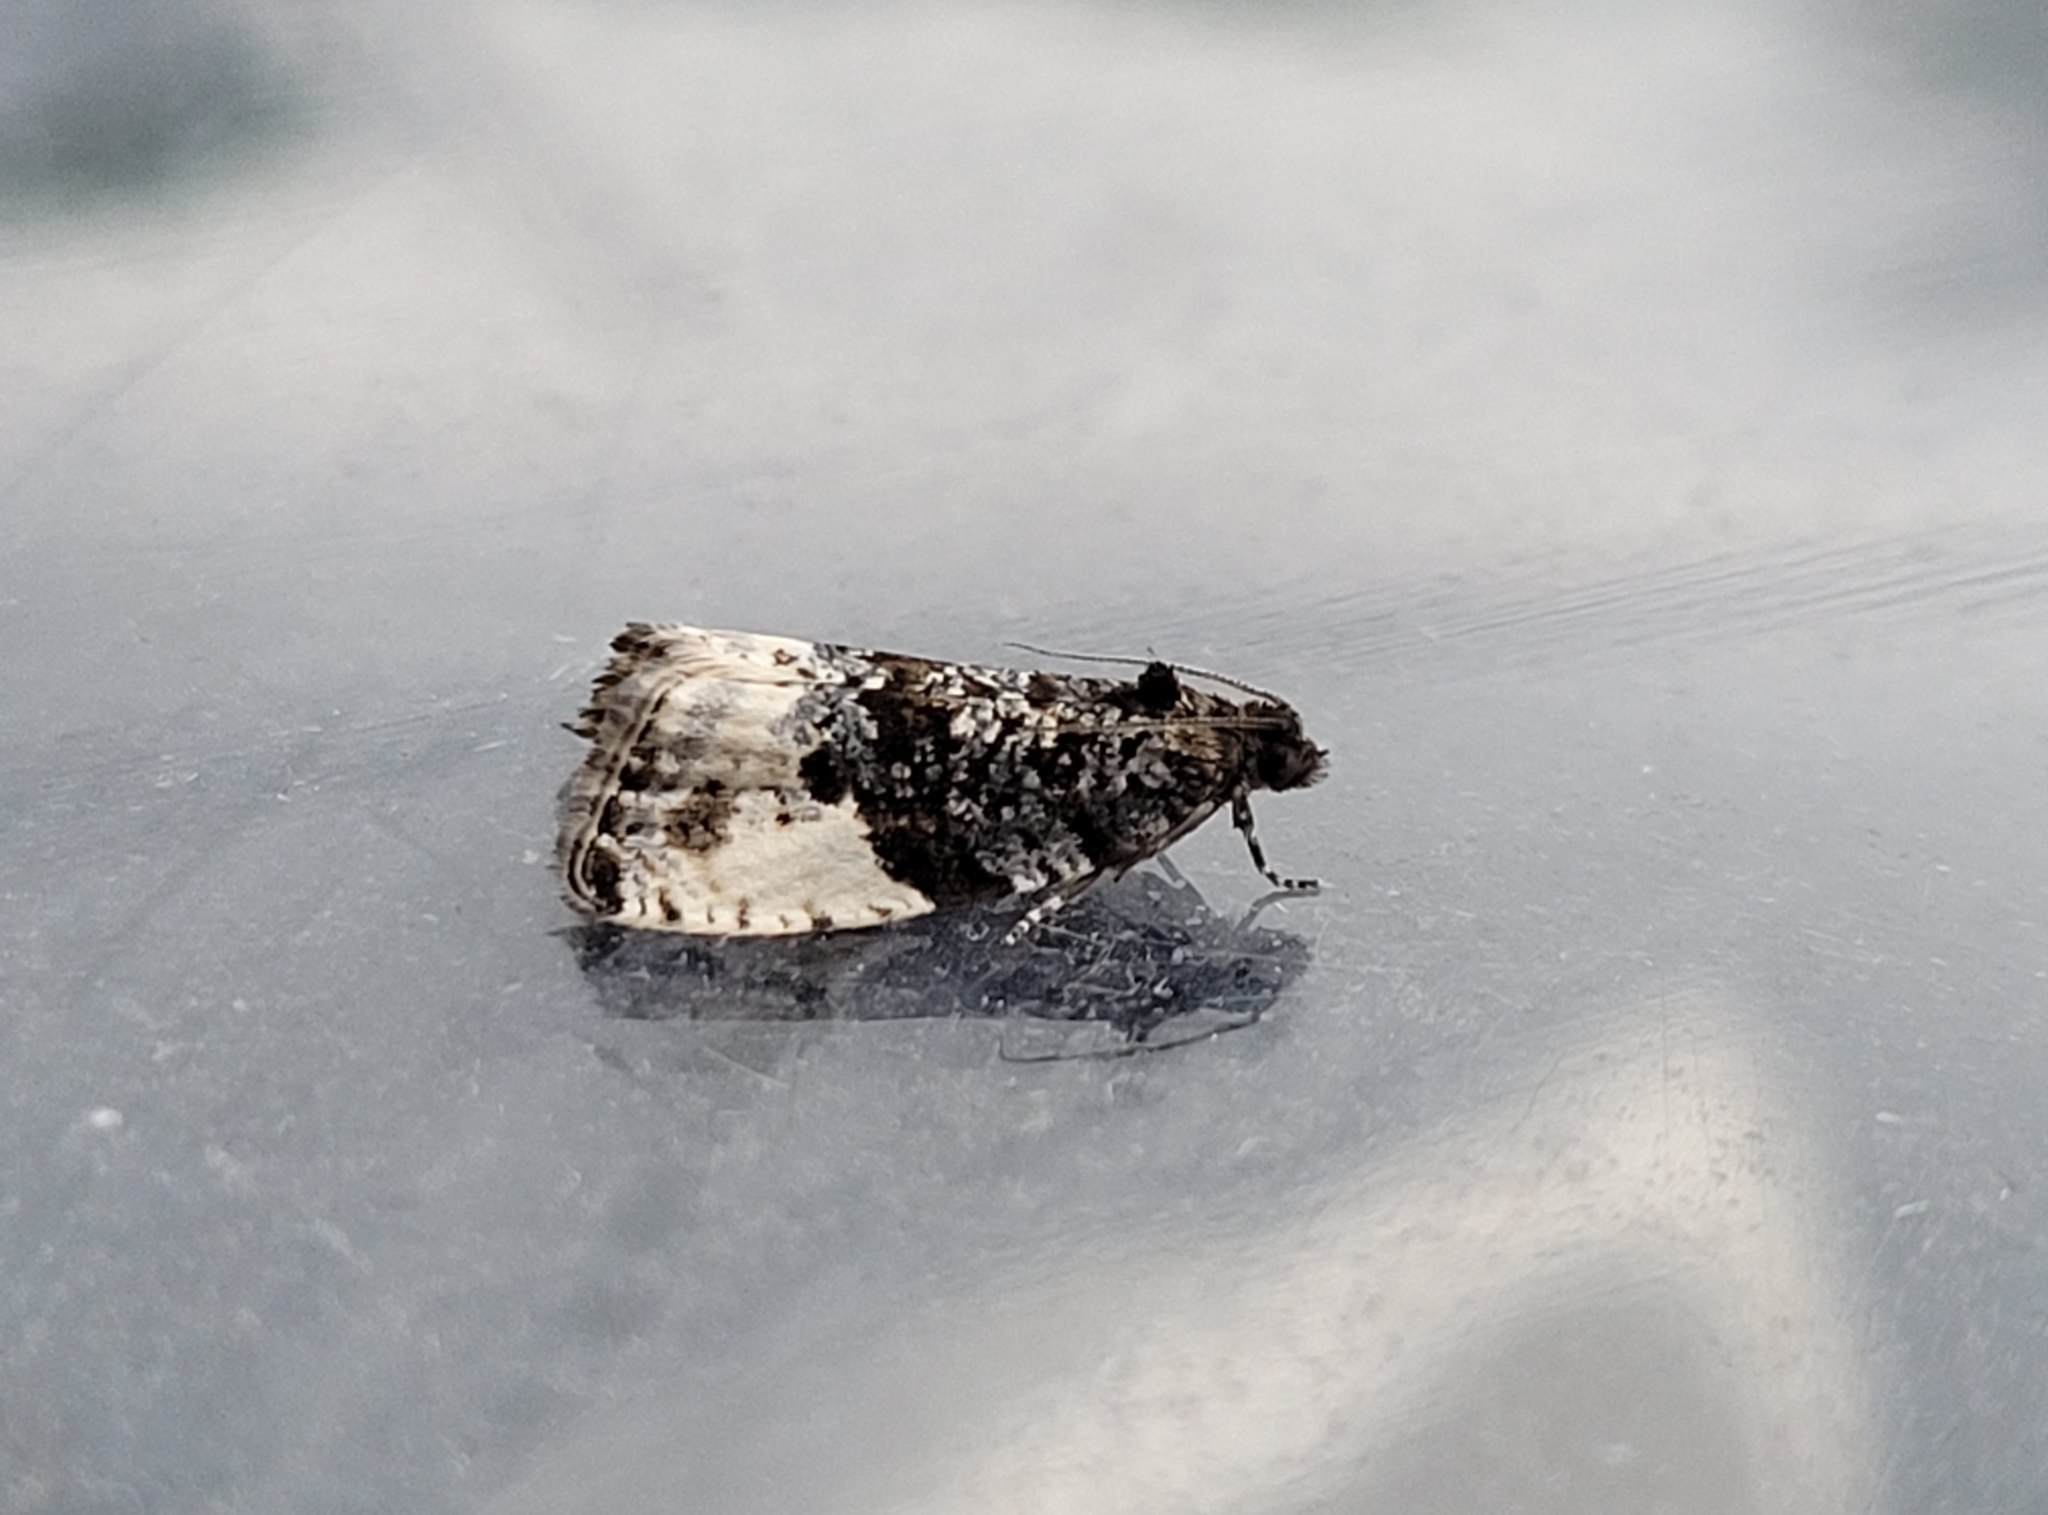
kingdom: Animalia
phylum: Arthropoda
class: Insecta
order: Lepidoptera
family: Tortricidae
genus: Hedya
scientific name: Hedya pruniana
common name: Plum tortrix
